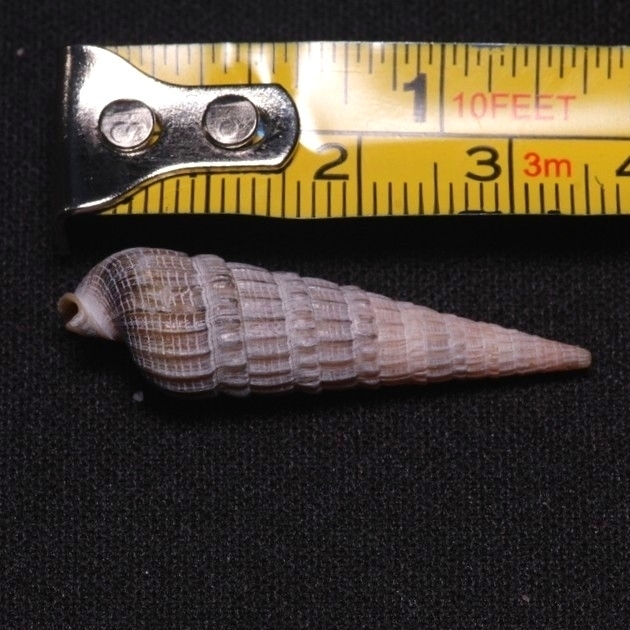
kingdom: Animalia
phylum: Mollusca
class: Gastropoda
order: Neogastropoda
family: Terebridae
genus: Neoterebra
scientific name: Neoterebra dislocata
